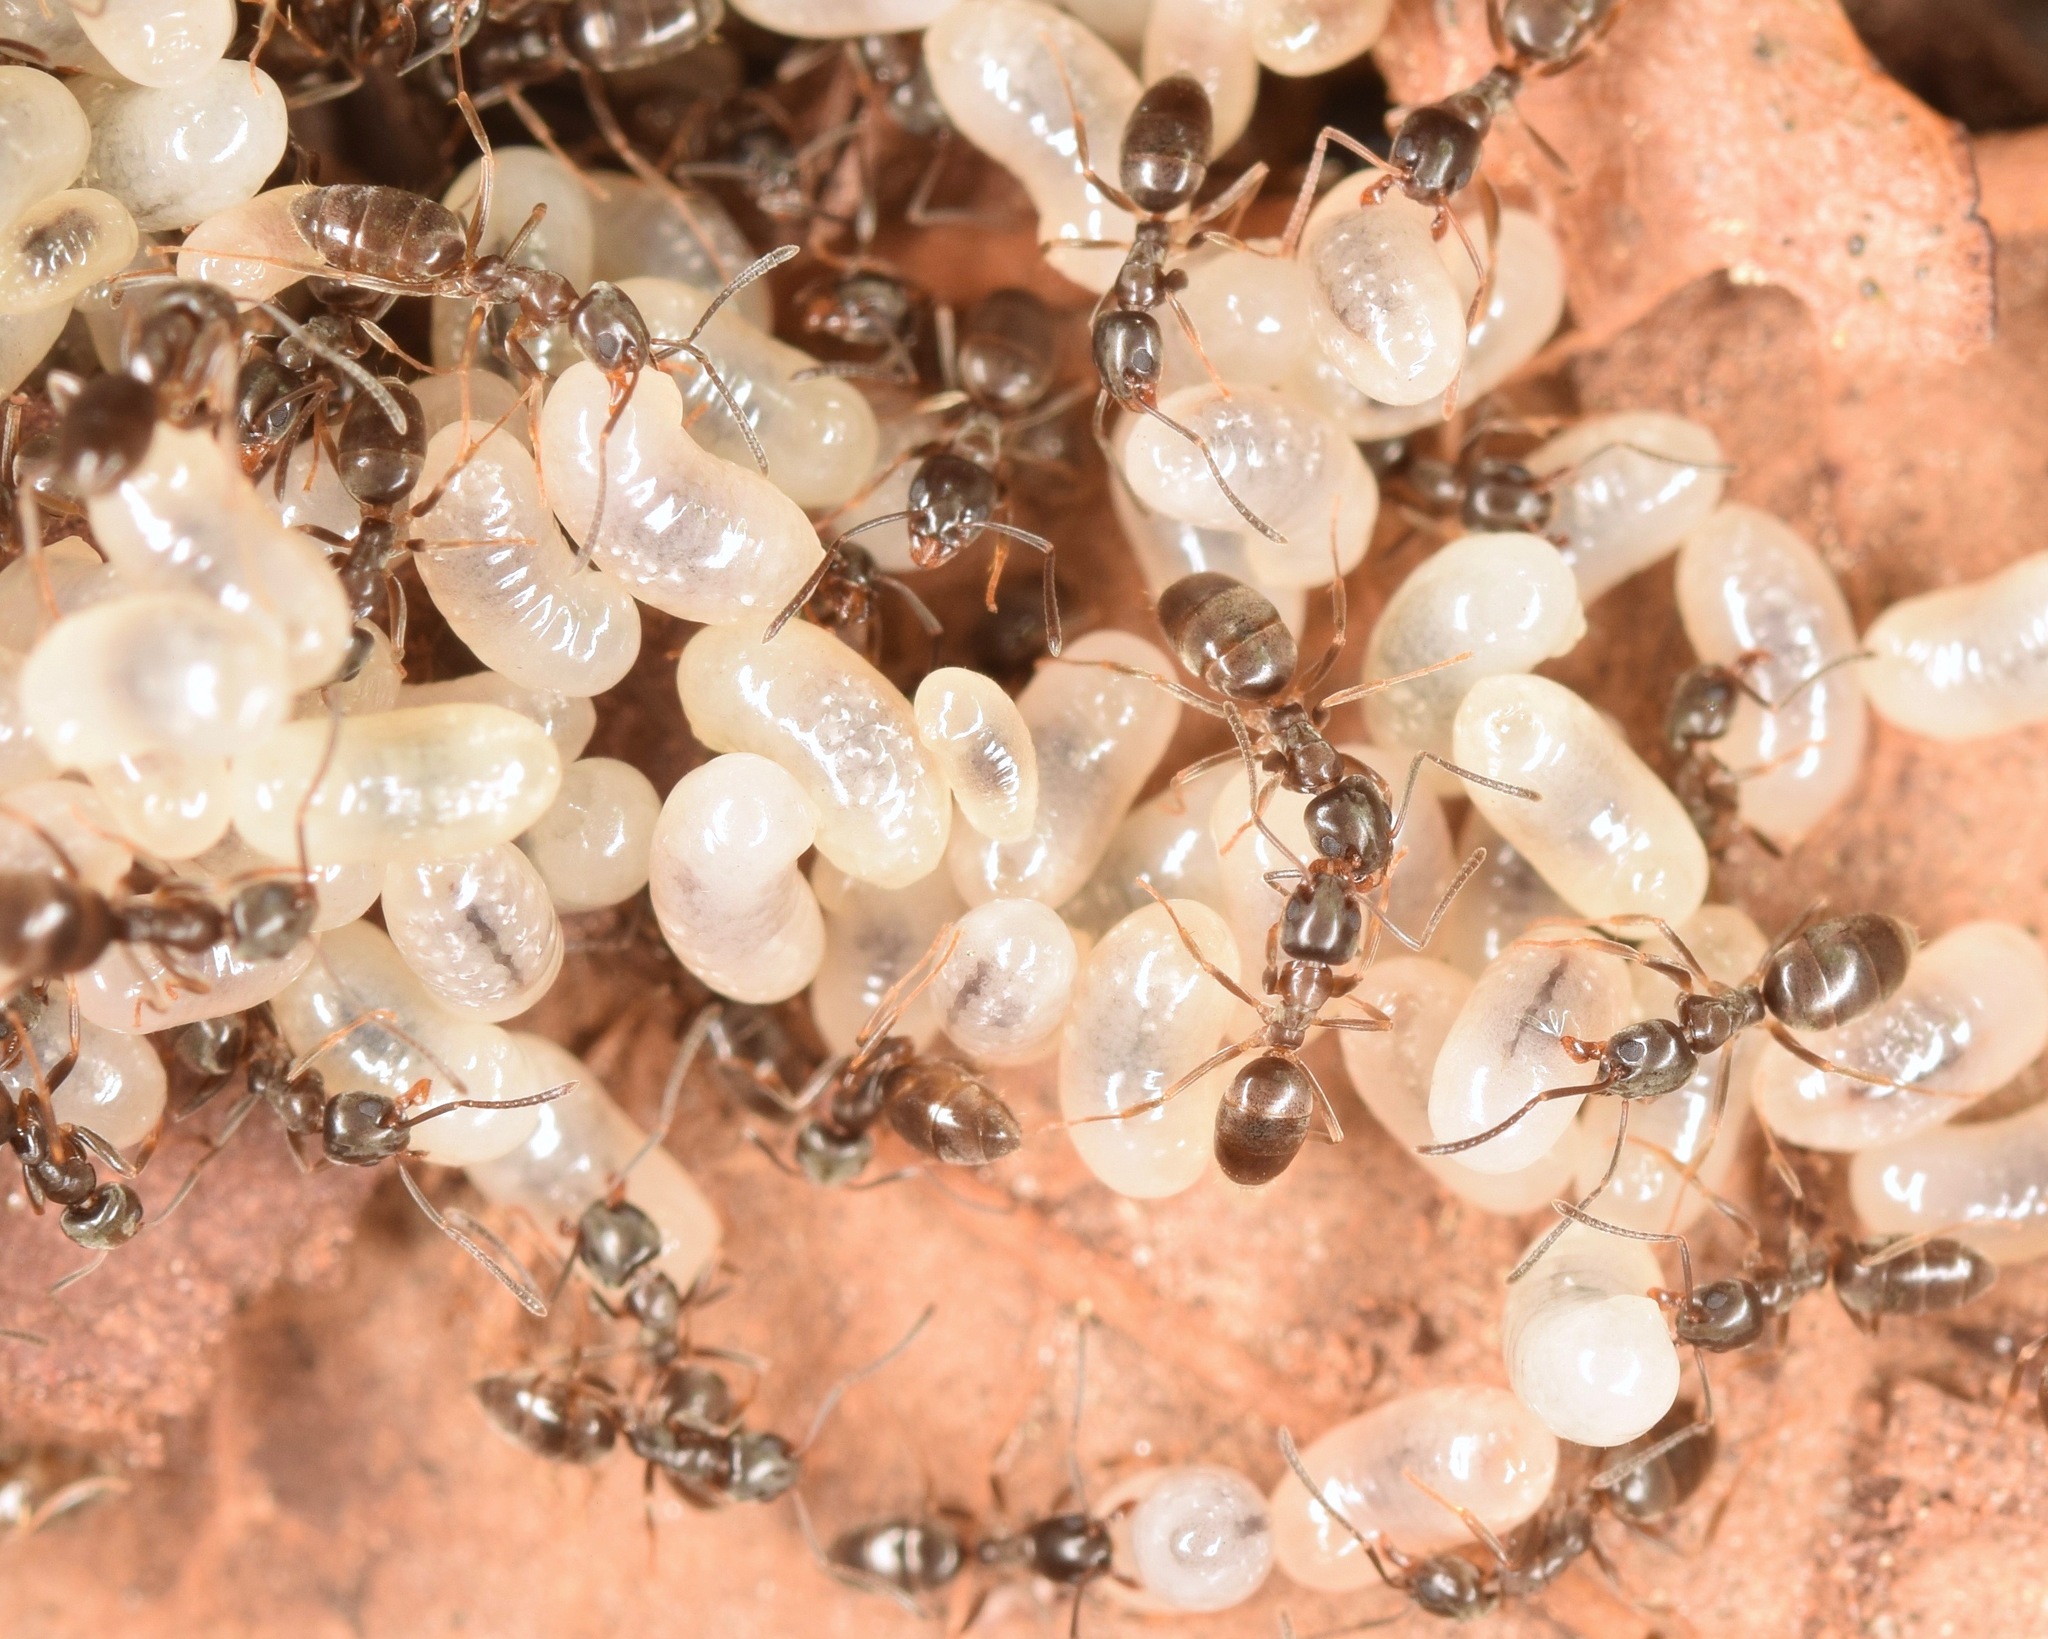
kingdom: Animalia
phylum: Arthropoda
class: Insecta
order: Hymenoptera
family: Formicidae
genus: Tapinoma
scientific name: Tapinoma sessile
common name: Odorous house ant
